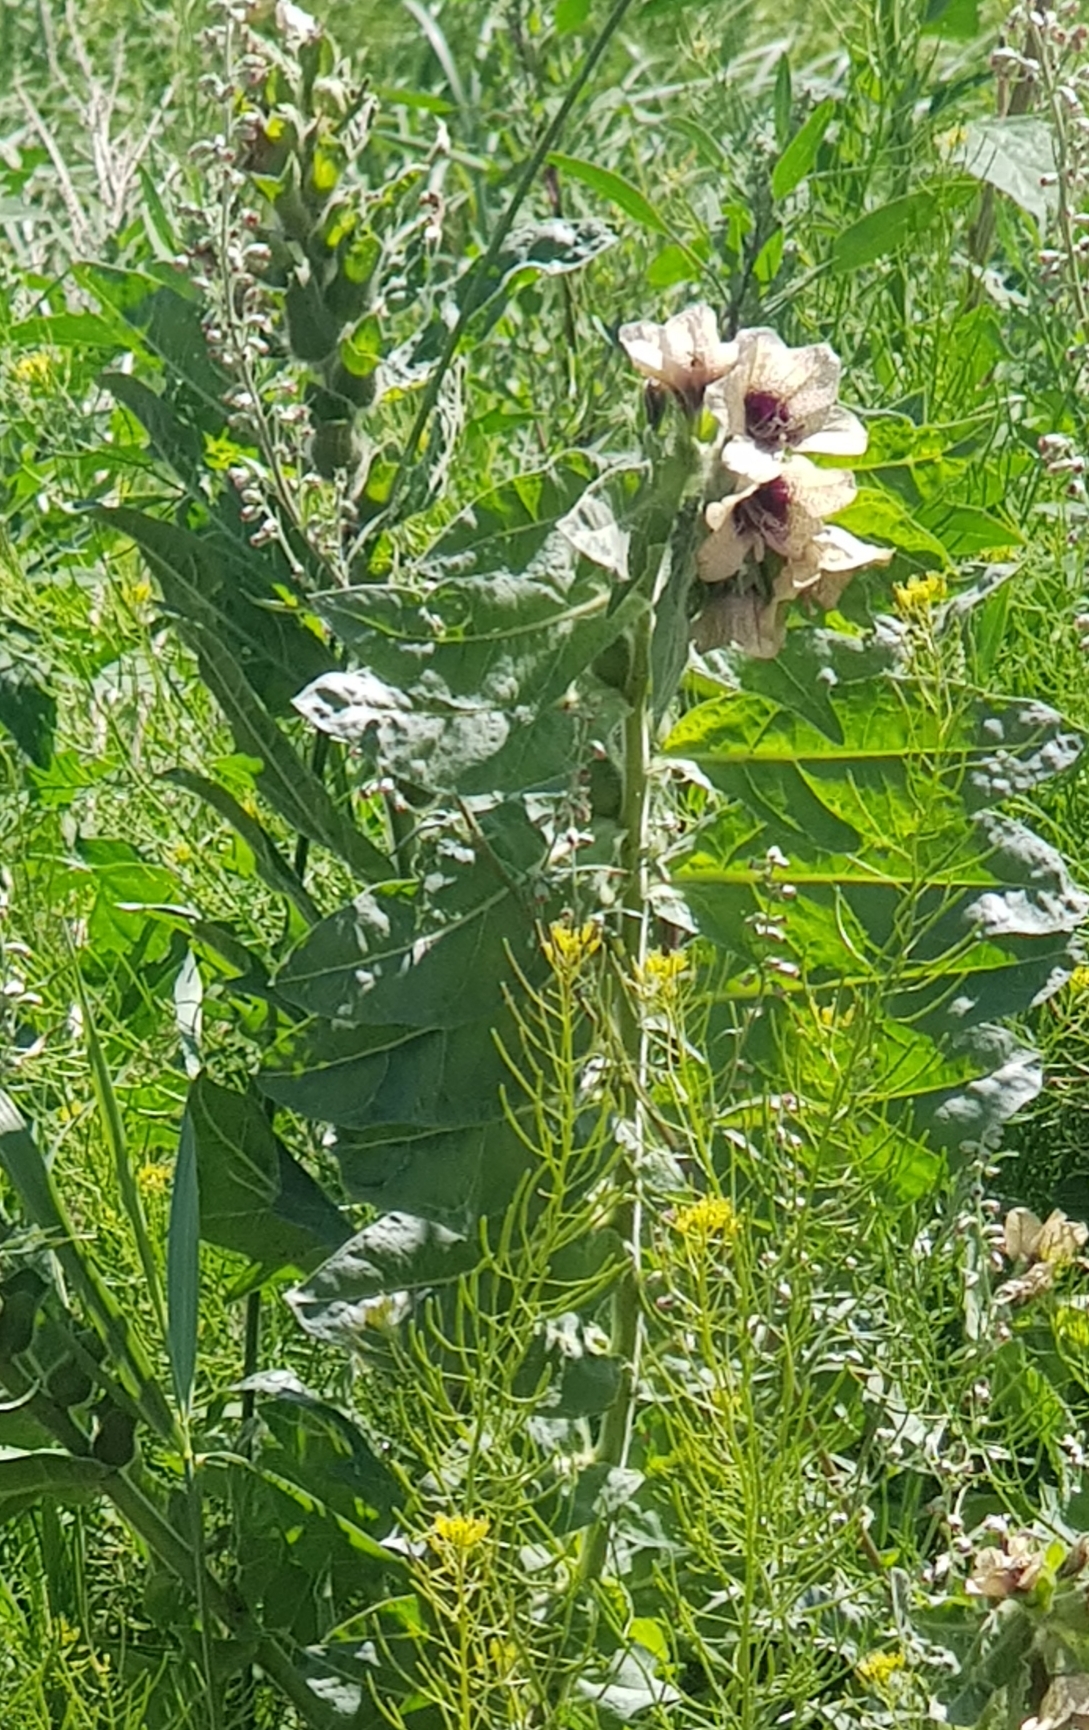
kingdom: Plantae
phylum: Tracheophyta
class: Magnoliopsida
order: Solanales
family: Solanaceae
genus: Hyoscyamus
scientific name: Hyoscyamus niger
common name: Henbane
